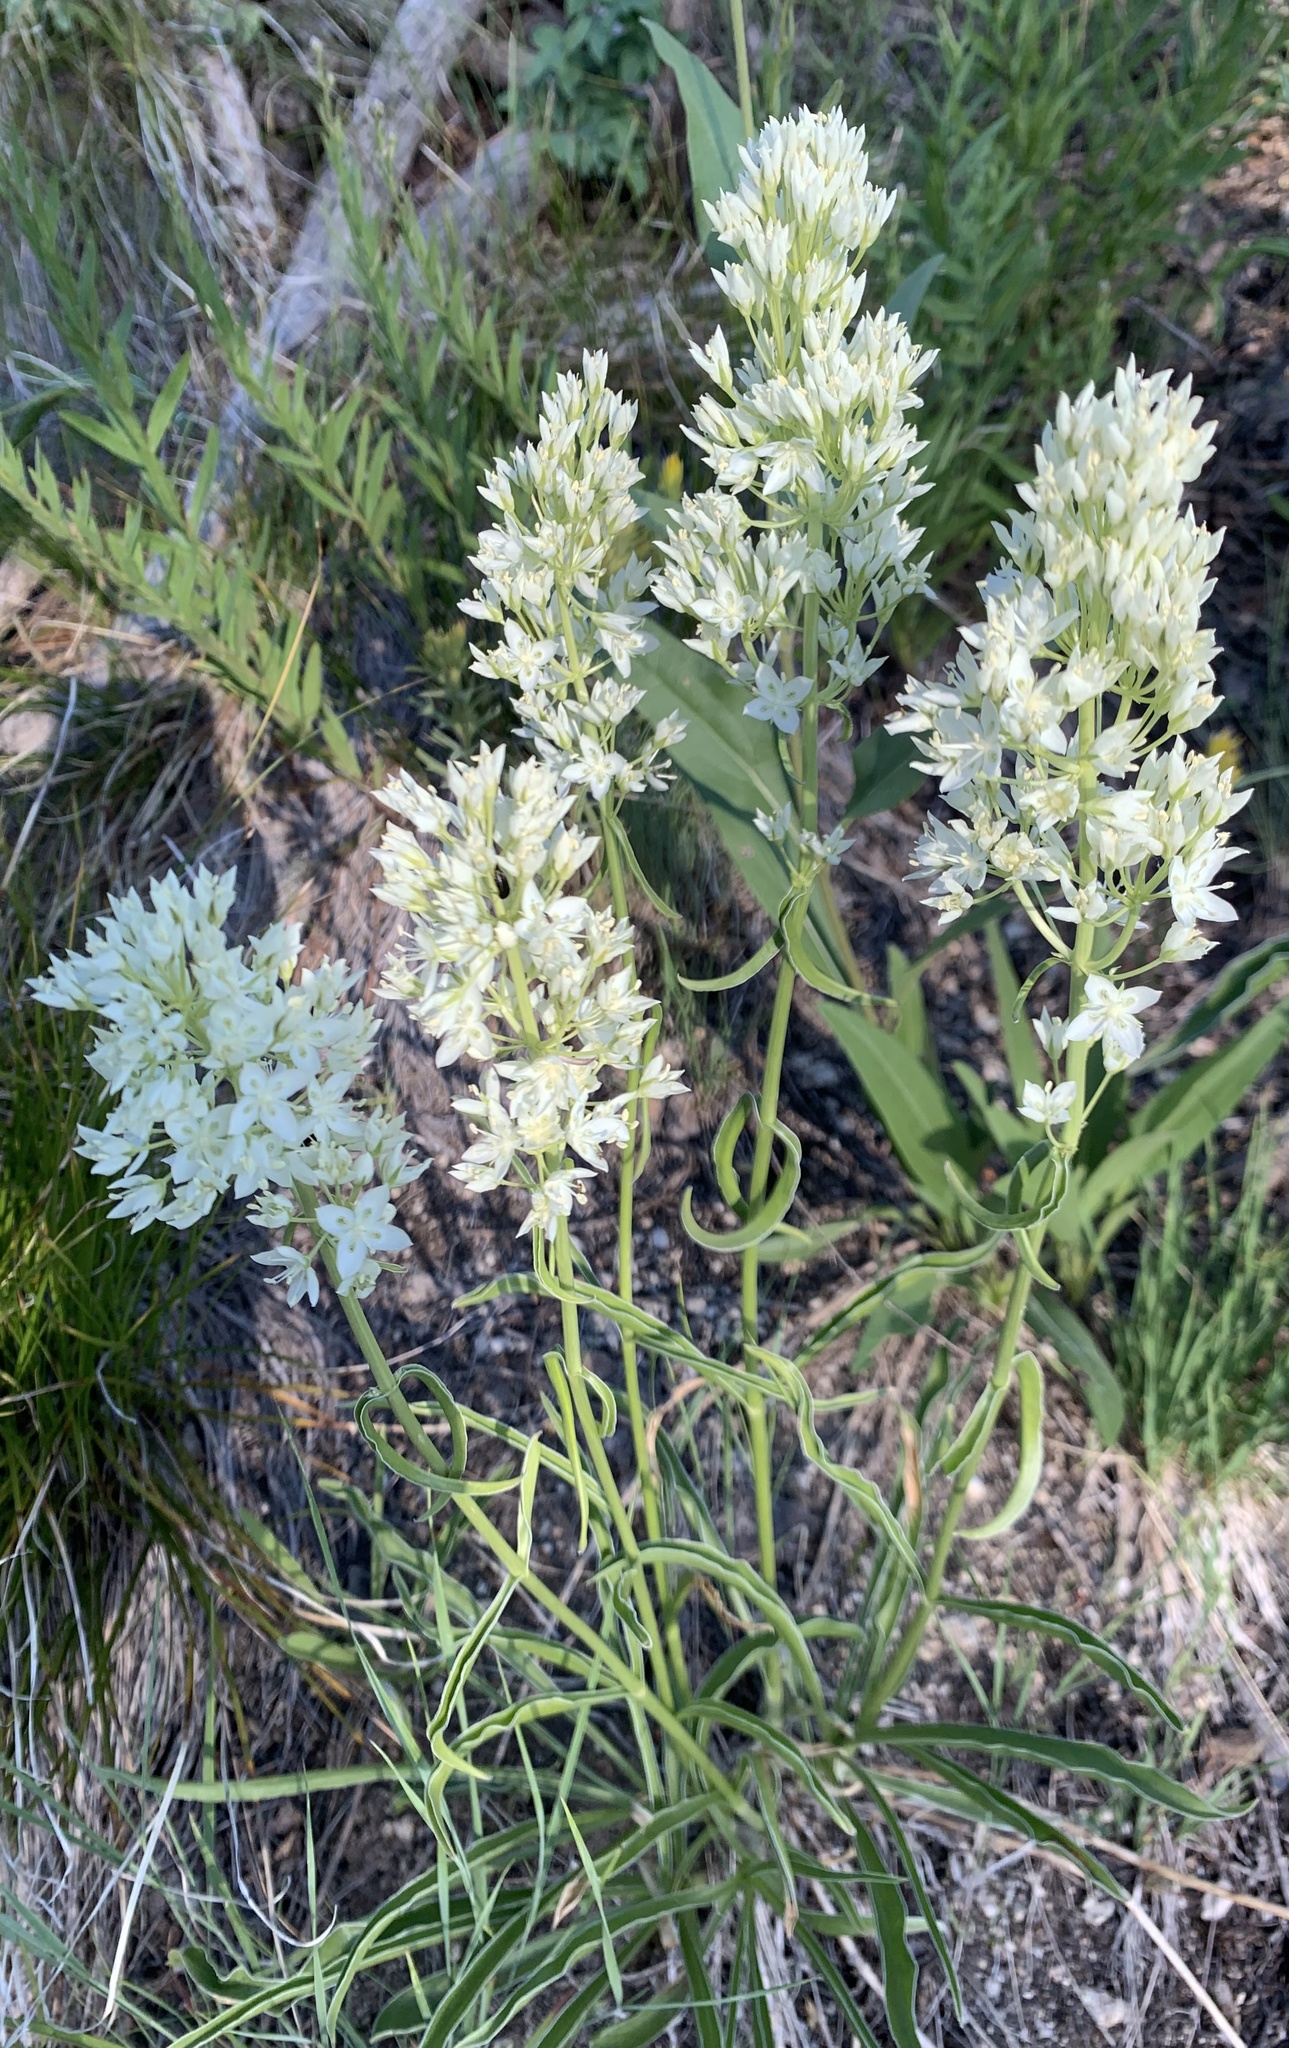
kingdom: Plantae
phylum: Tracheophyta
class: Magnoliopsida
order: Gentianales
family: Gentianaceae
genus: Frasera
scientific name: Frasera montana
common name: White frasera
